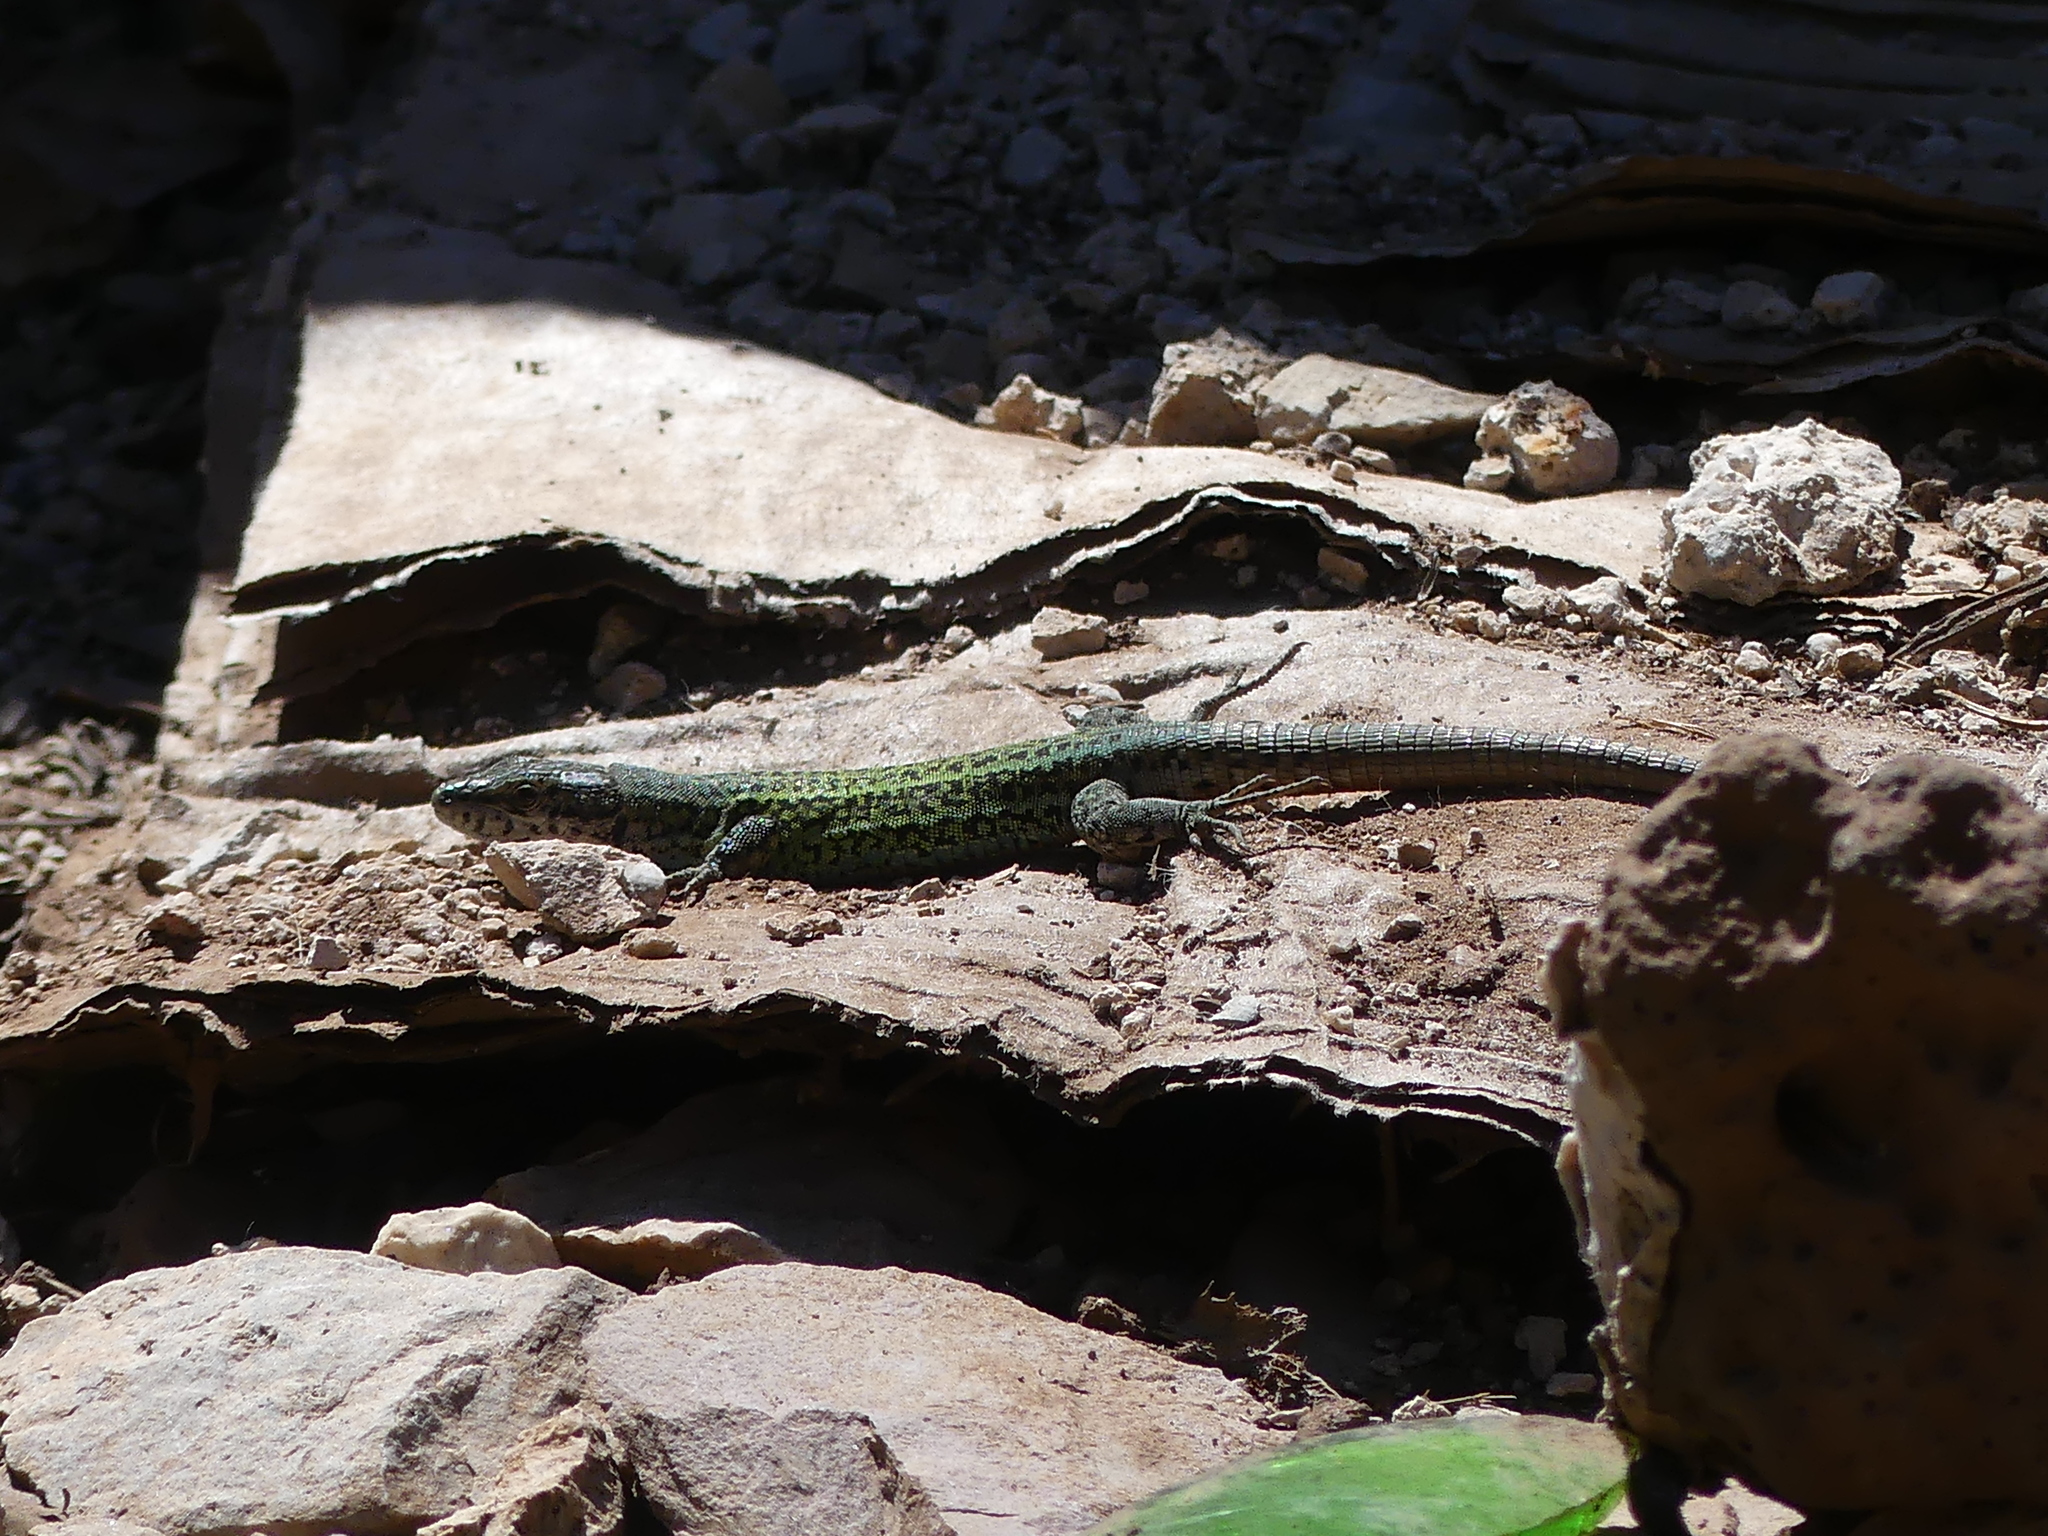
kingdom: Animalia
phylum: Chordata
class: Squamata
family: Lacertidae
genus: Podarcis
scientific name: Podarcis vaucheri
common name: Vaucher's wall lizard
